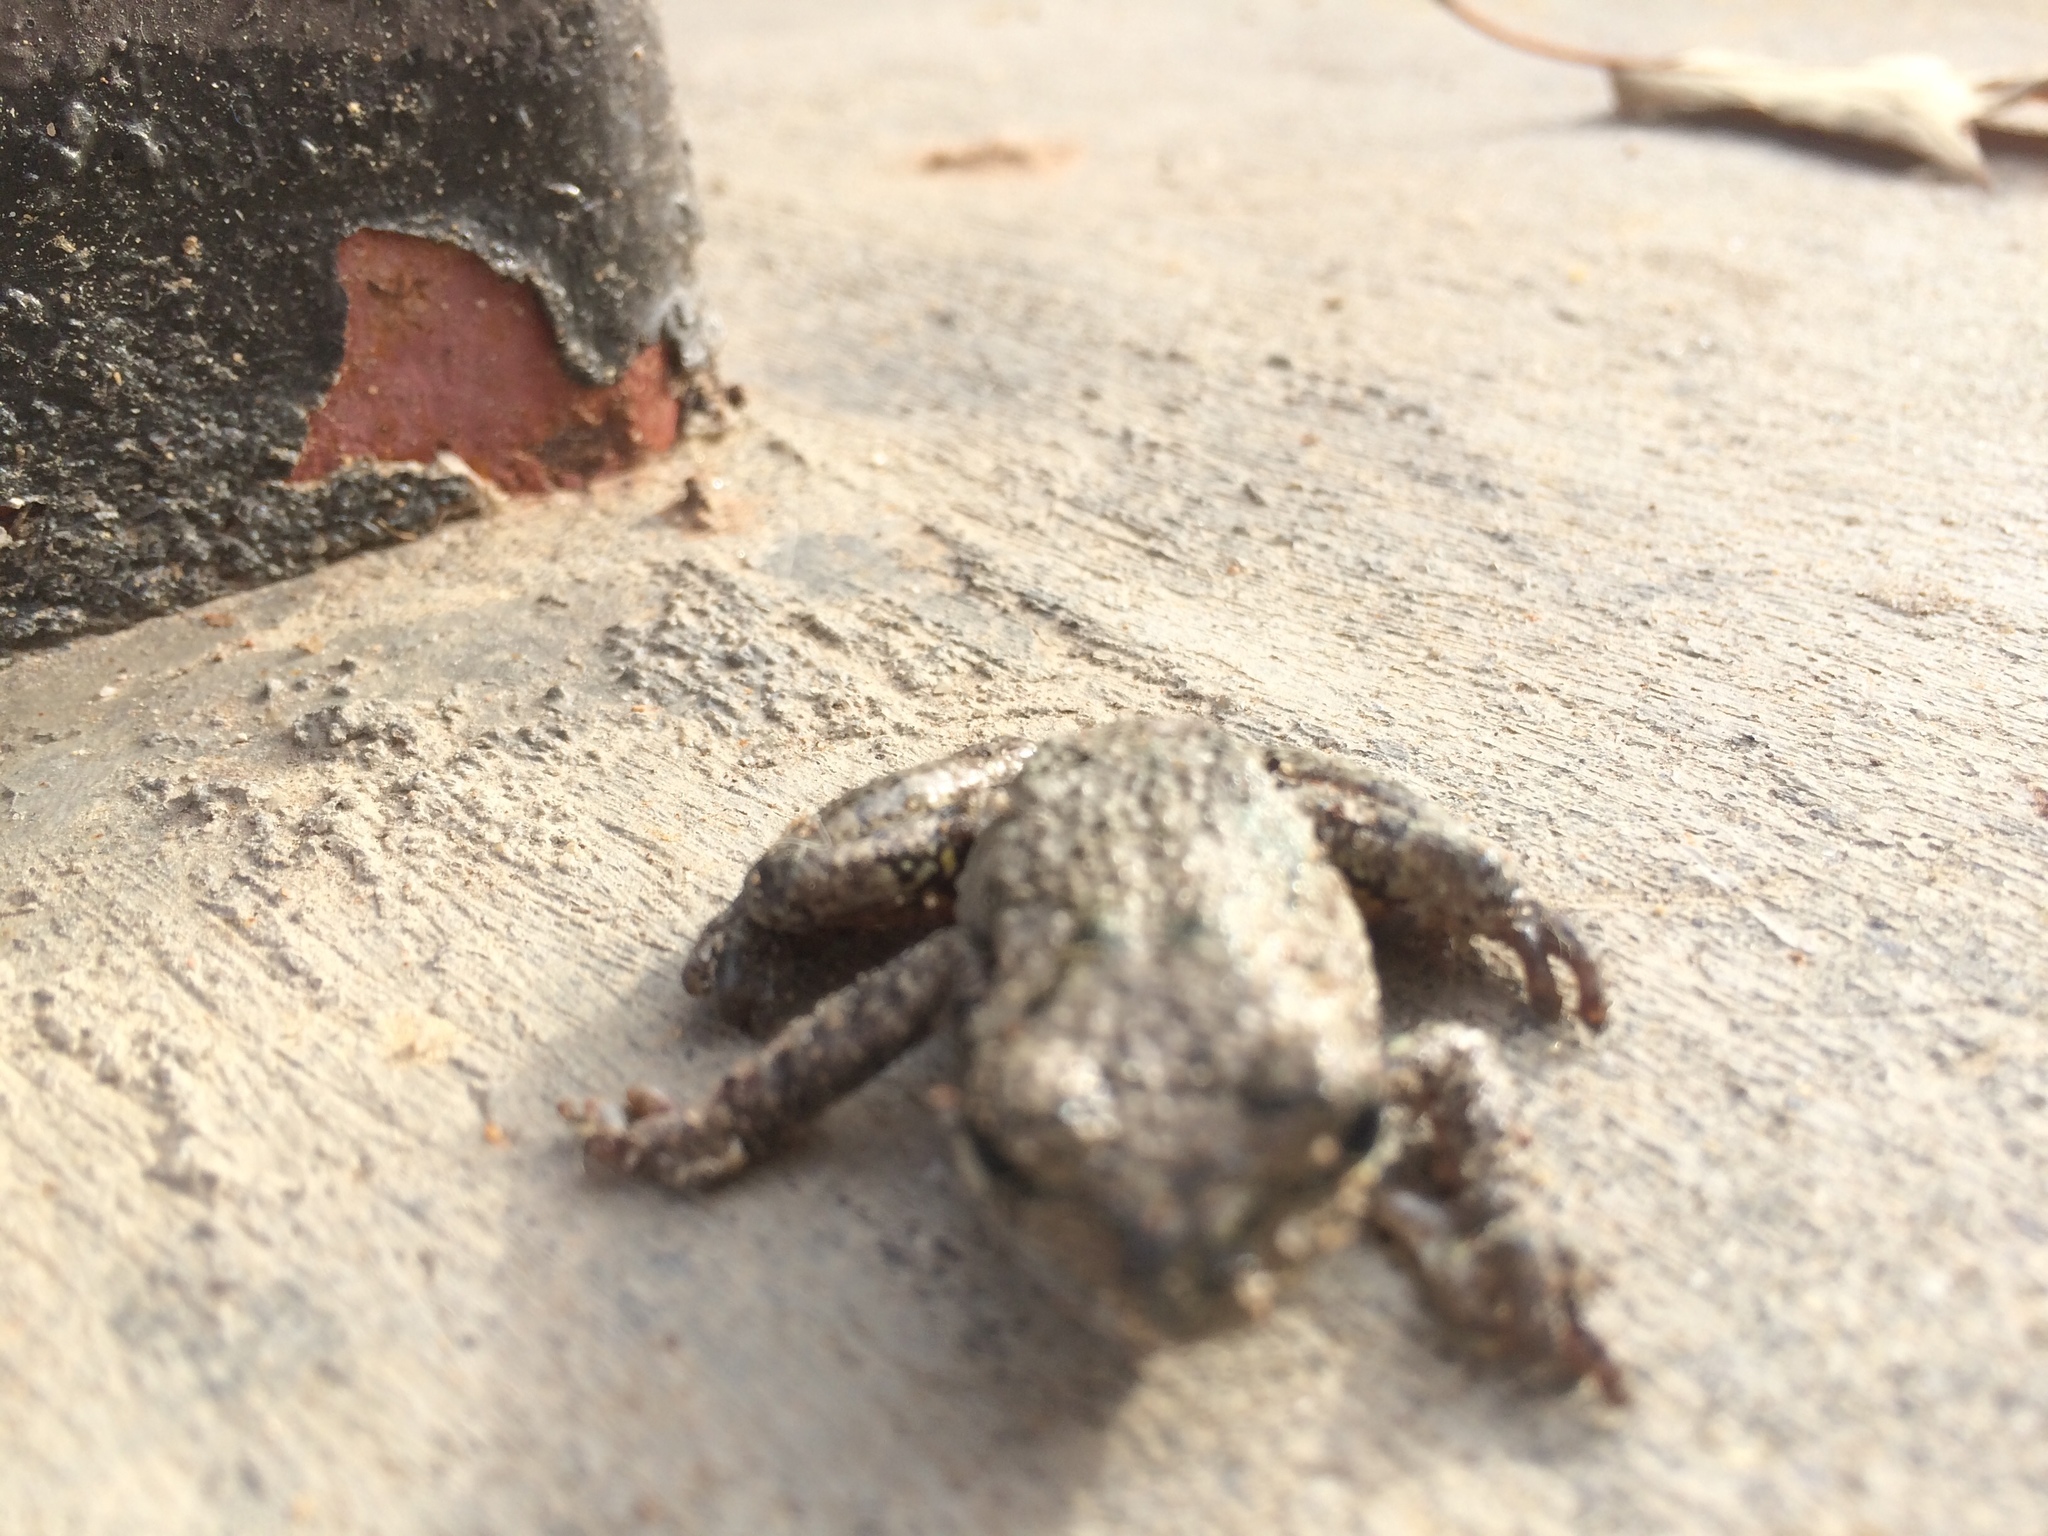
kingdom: Animalia
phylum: Chordata
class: Amphibia
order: Anura
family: Hylidae
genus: Dryophytes
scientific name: Dryophytes chrysoscelis
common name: Cope's gray treefrog
